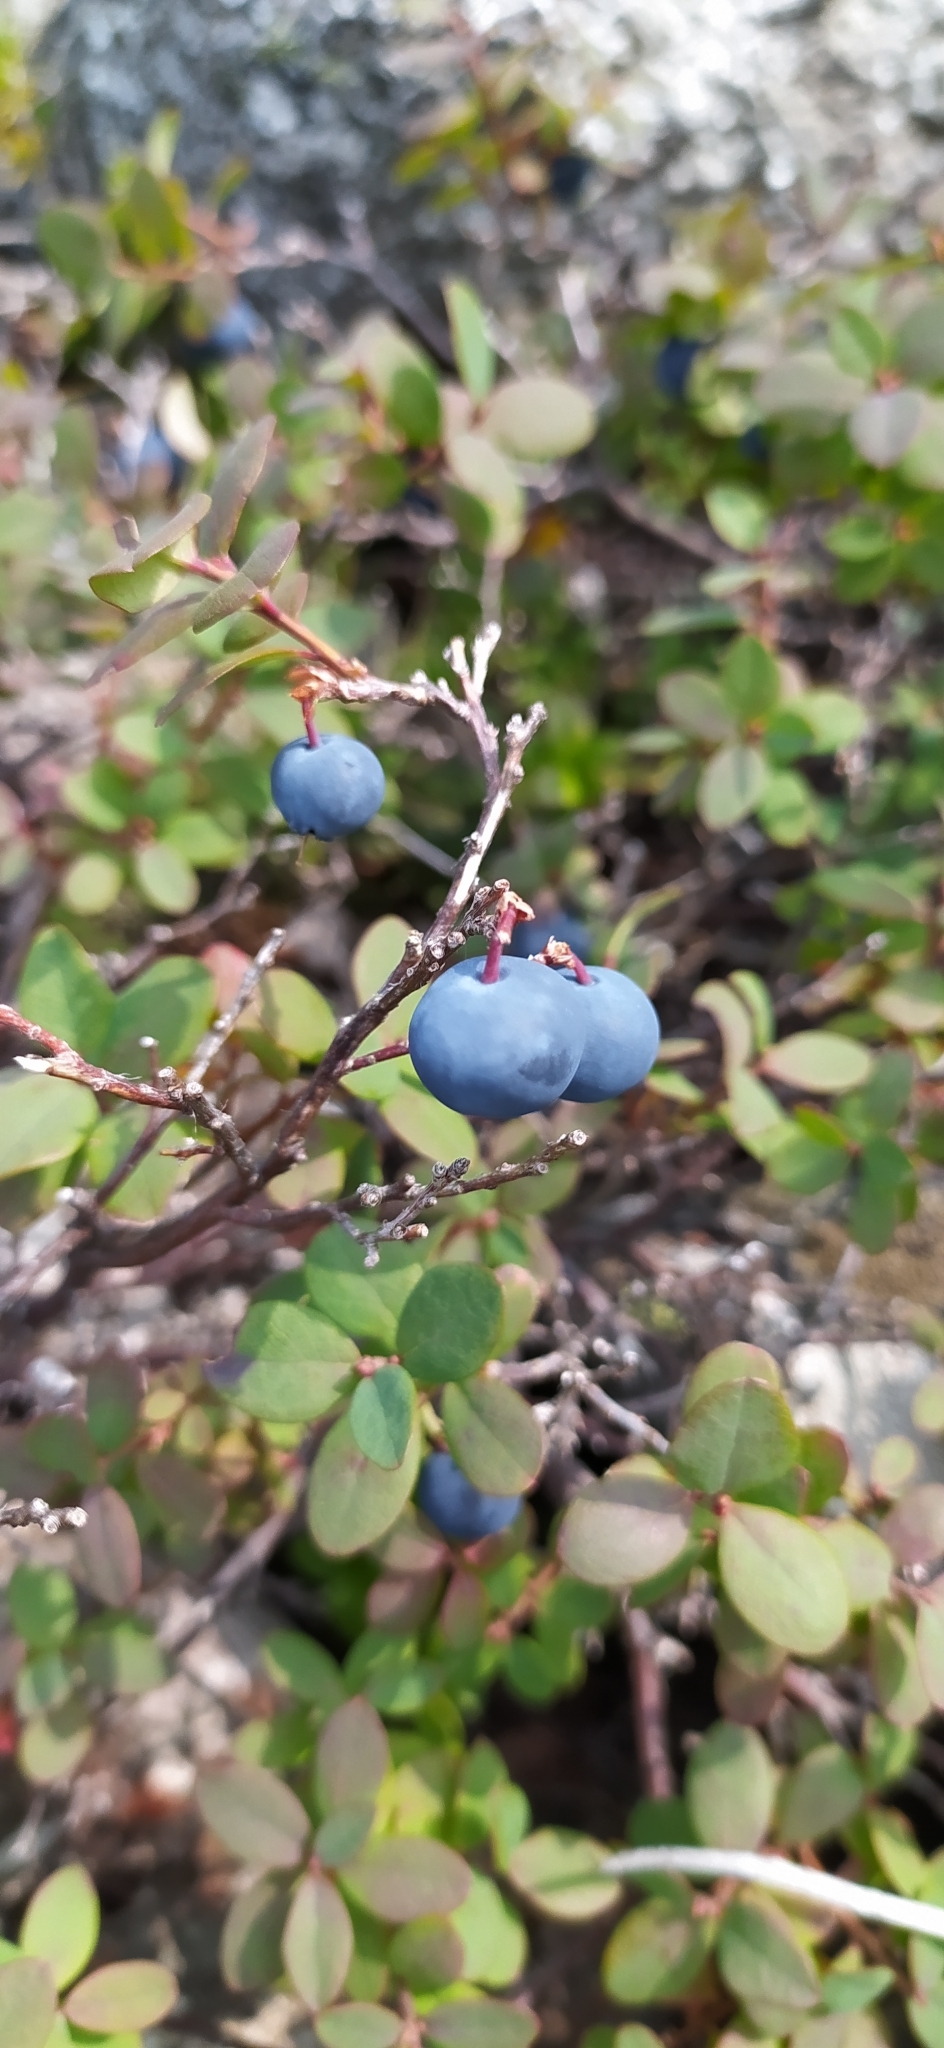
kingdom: Plantae
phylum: Tracheophyta
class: Magnoliopsida
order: Ericales
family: Ericaceae
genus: Vaccinium
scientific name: Vaccinium uliginosum
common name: Bog bilberry
